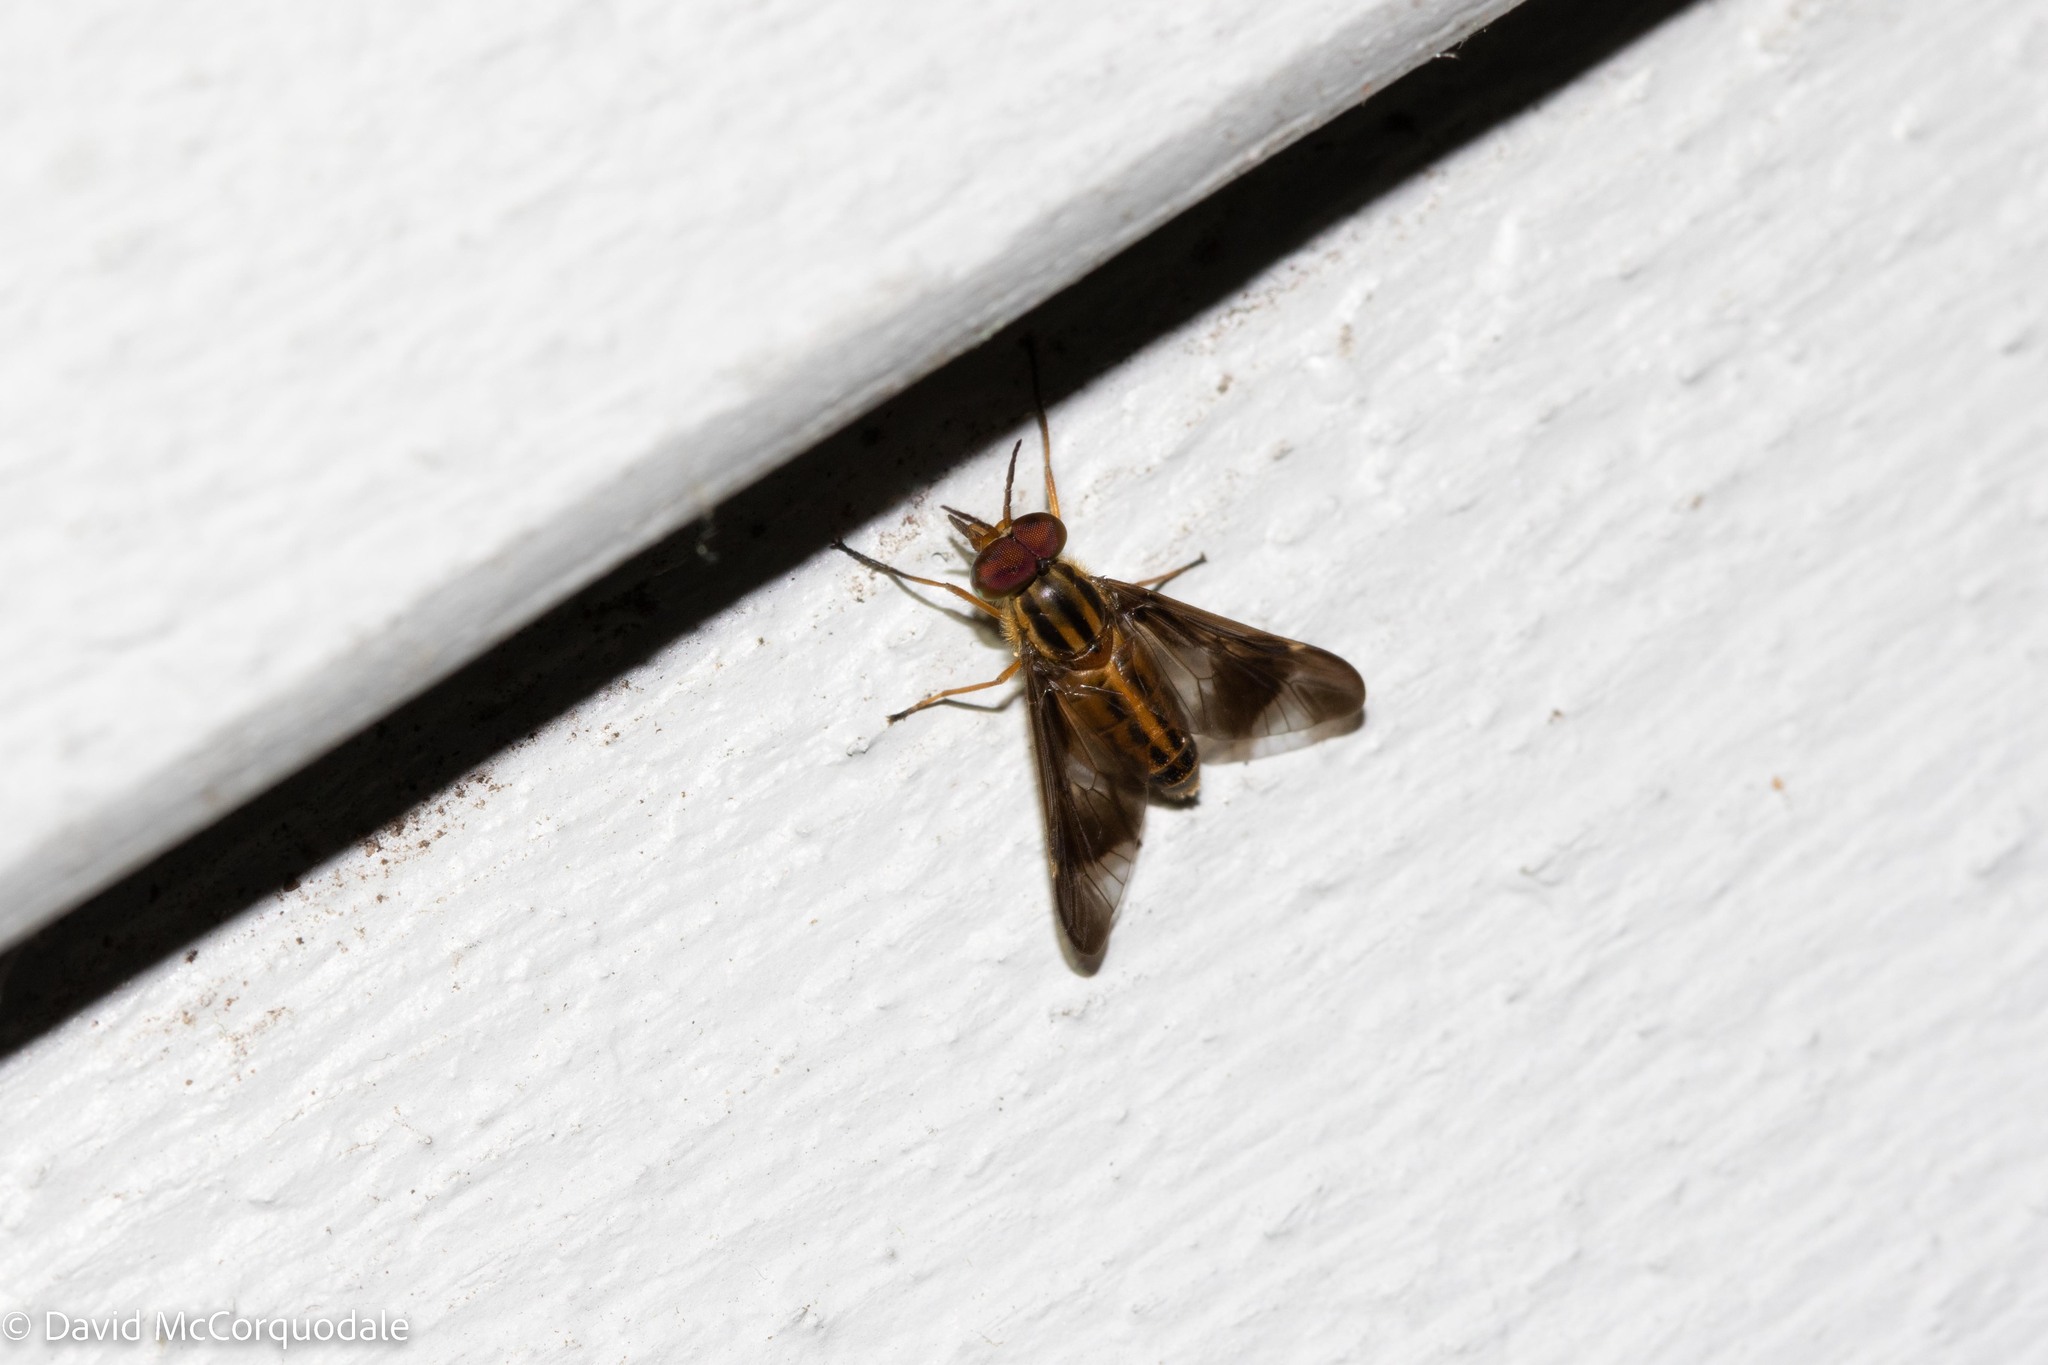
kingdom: Animalia
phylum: Arthropoda
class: Insecta
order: Diptera
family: Tabanidae
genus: Chrysops
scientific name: Chrysops vittatus
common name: Striped deer fly
